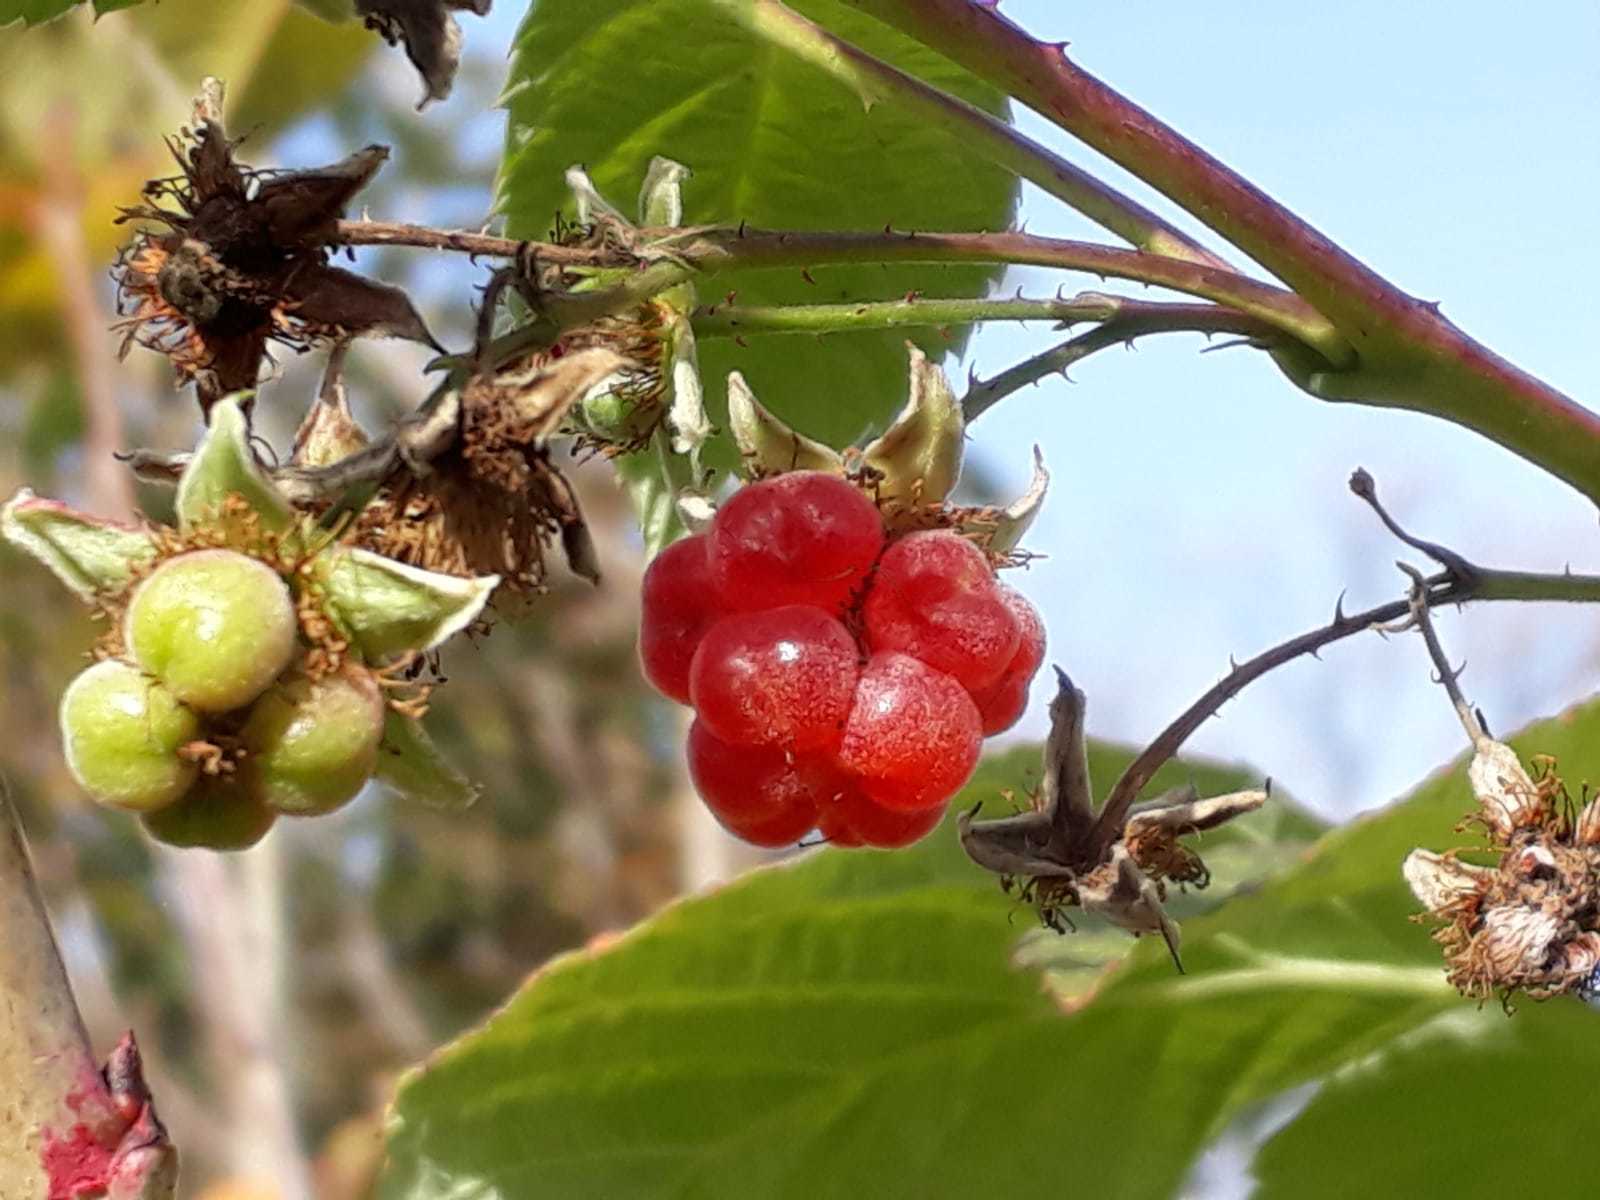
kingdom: Plantae
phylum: Tracheophyta
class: Magnoliopsida
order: Rosales
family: Rosaceae
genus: Rubus
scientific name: Rubus idaeus
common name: Raspberry
